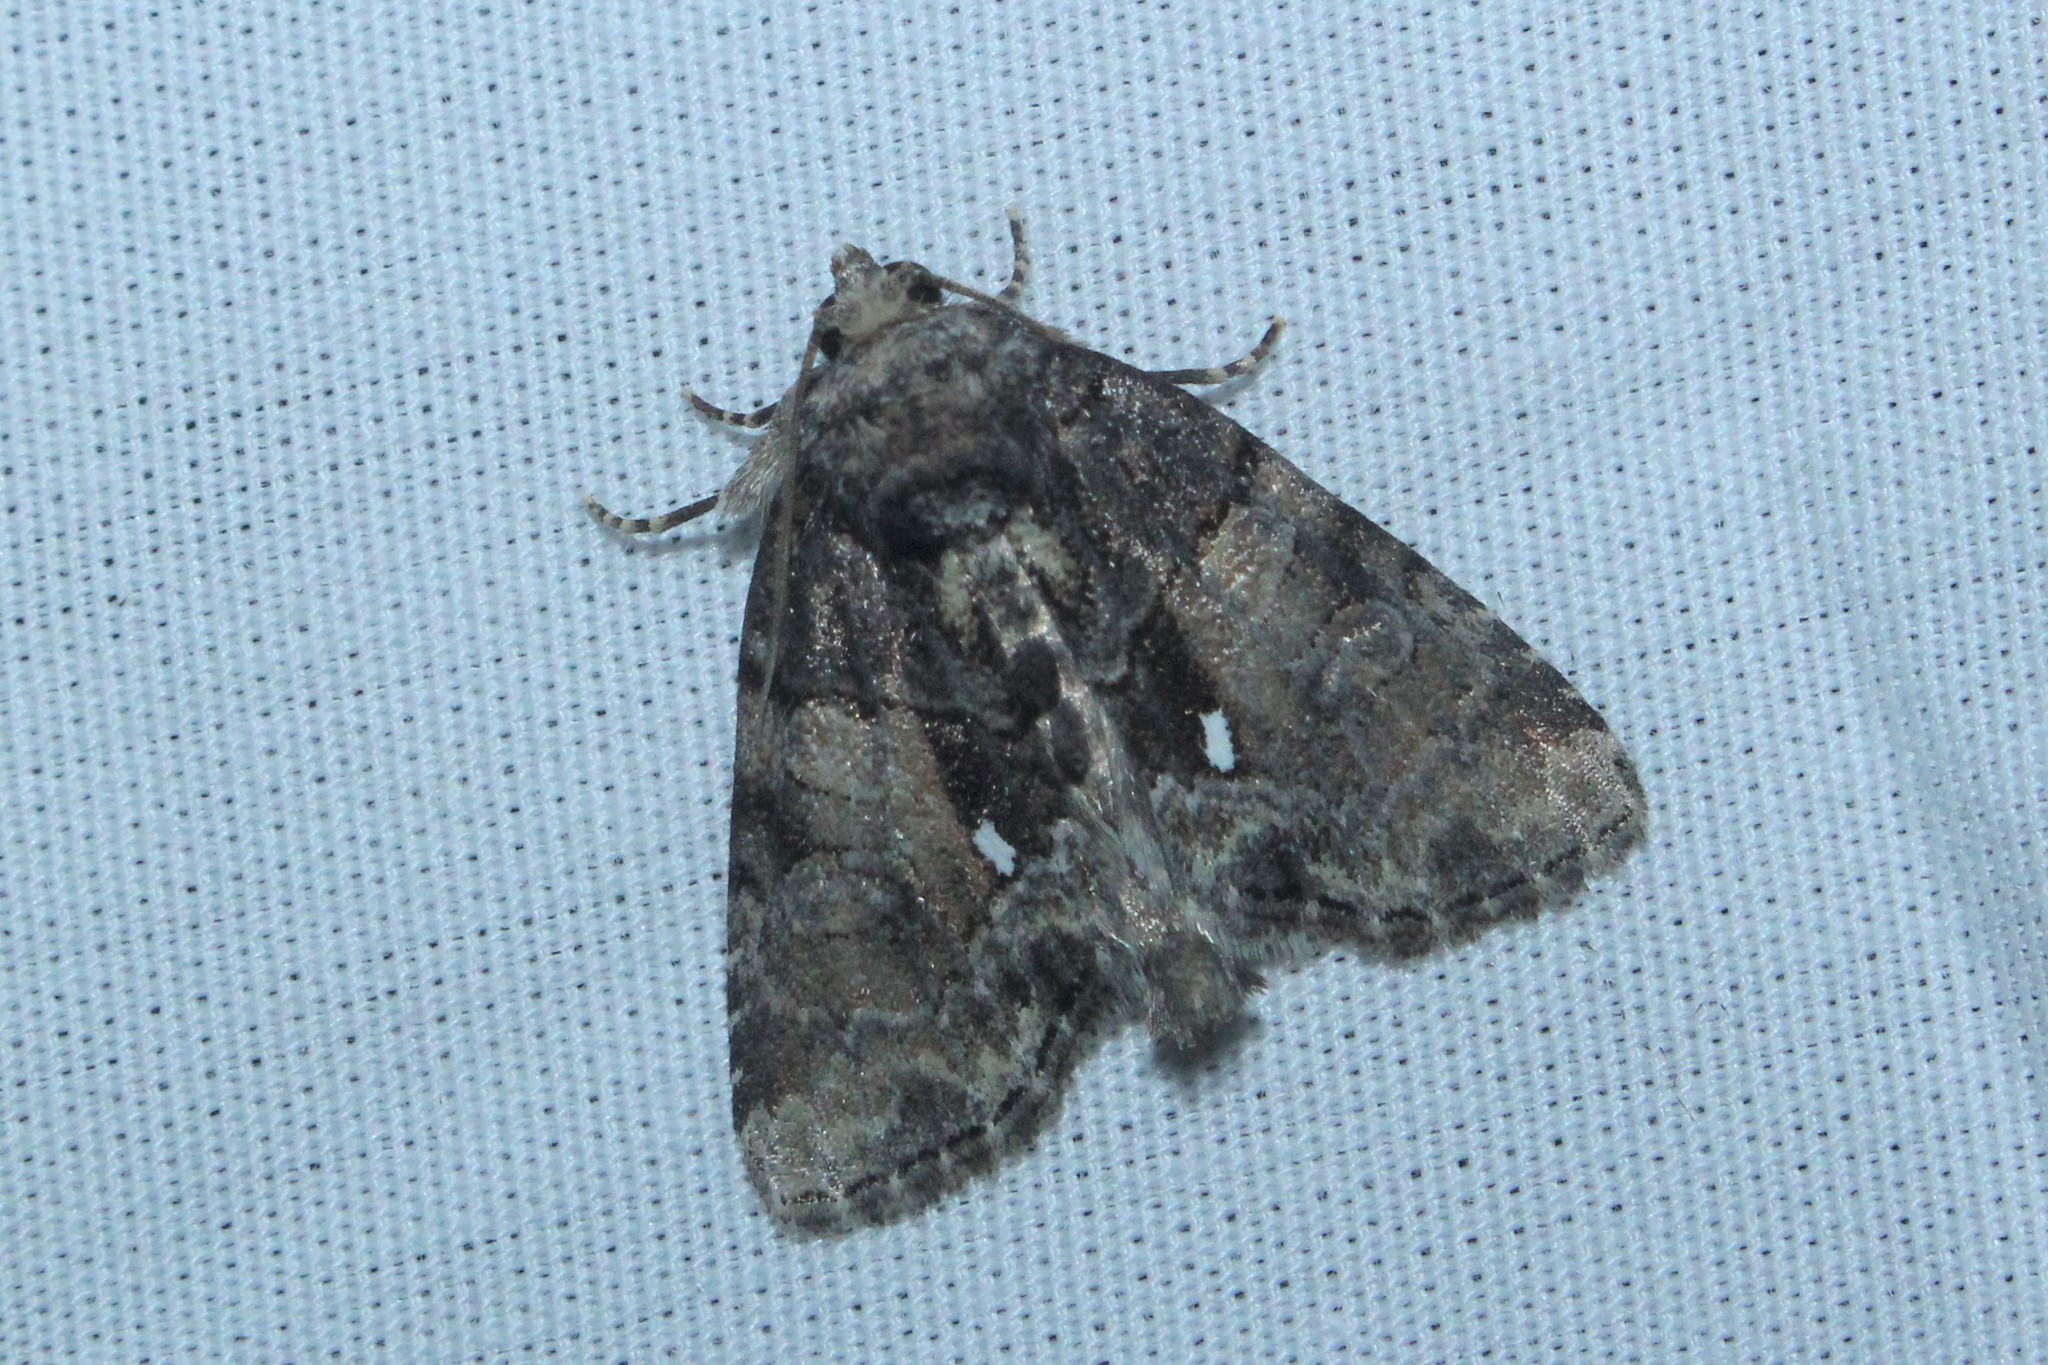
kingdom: Animalia
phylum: Arthropoda
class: Insecta
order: Lepidoptera
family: Noctuidae
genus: Chytonix
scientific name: Chytonix palliatricula
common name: Cloaked marvel
